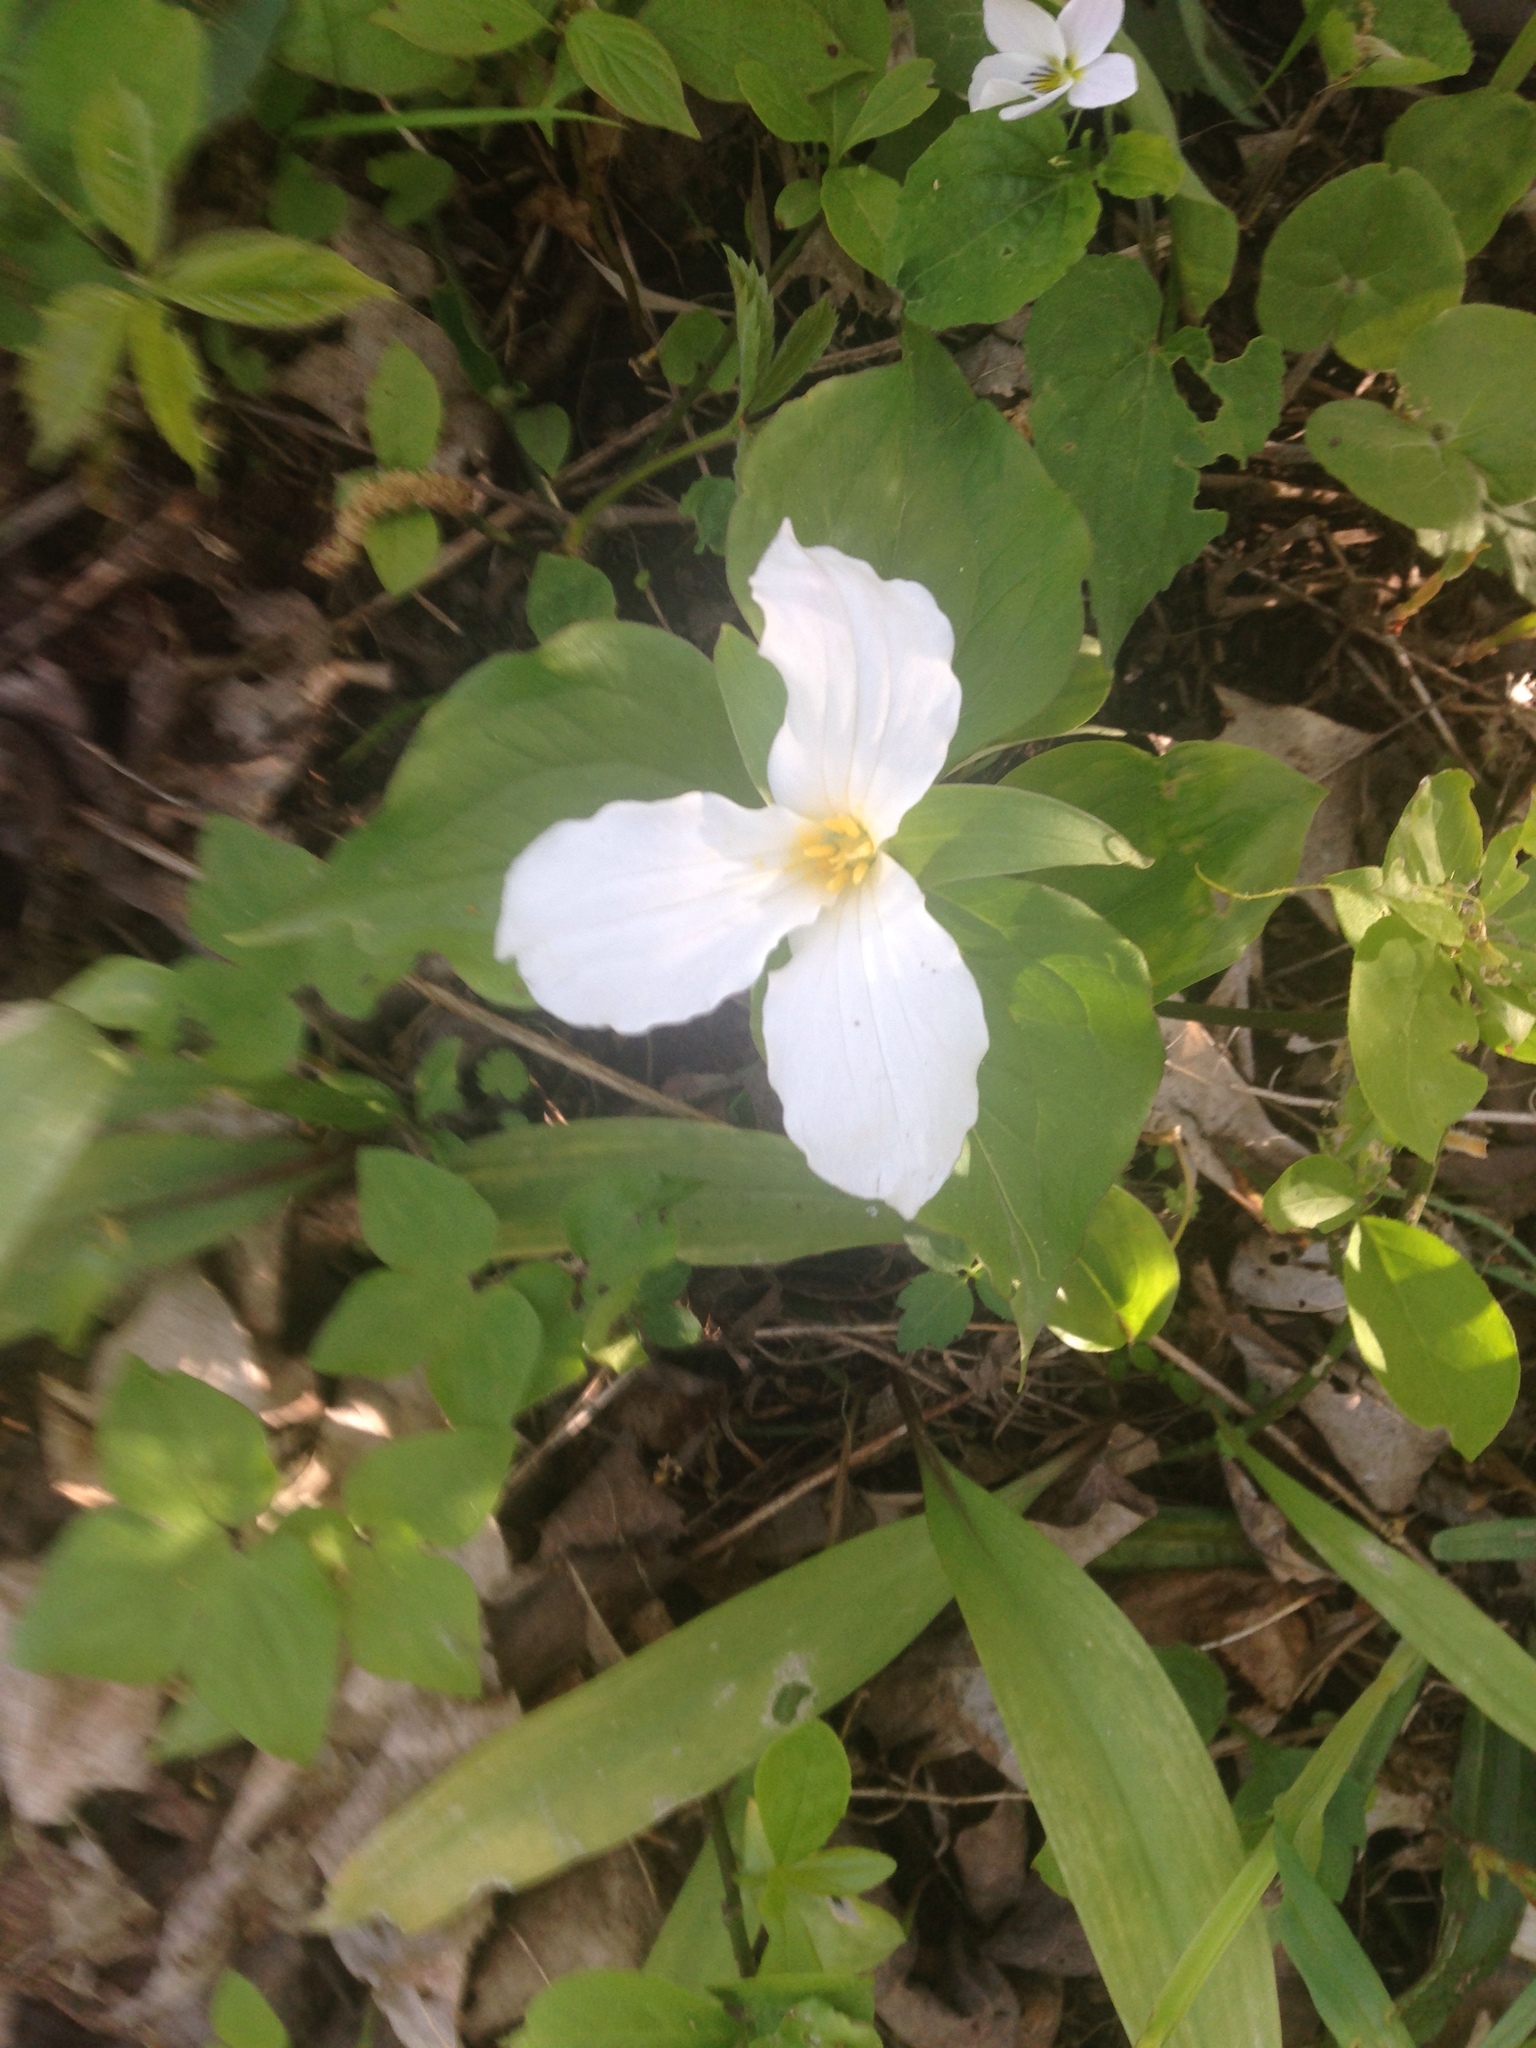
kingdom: Plantae
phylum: Tracheophyta
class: Liliopsida
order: Liliales
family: Melanthiaceae
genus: Trillium
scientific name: Trillium grandiflorum
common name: Great white trillium
